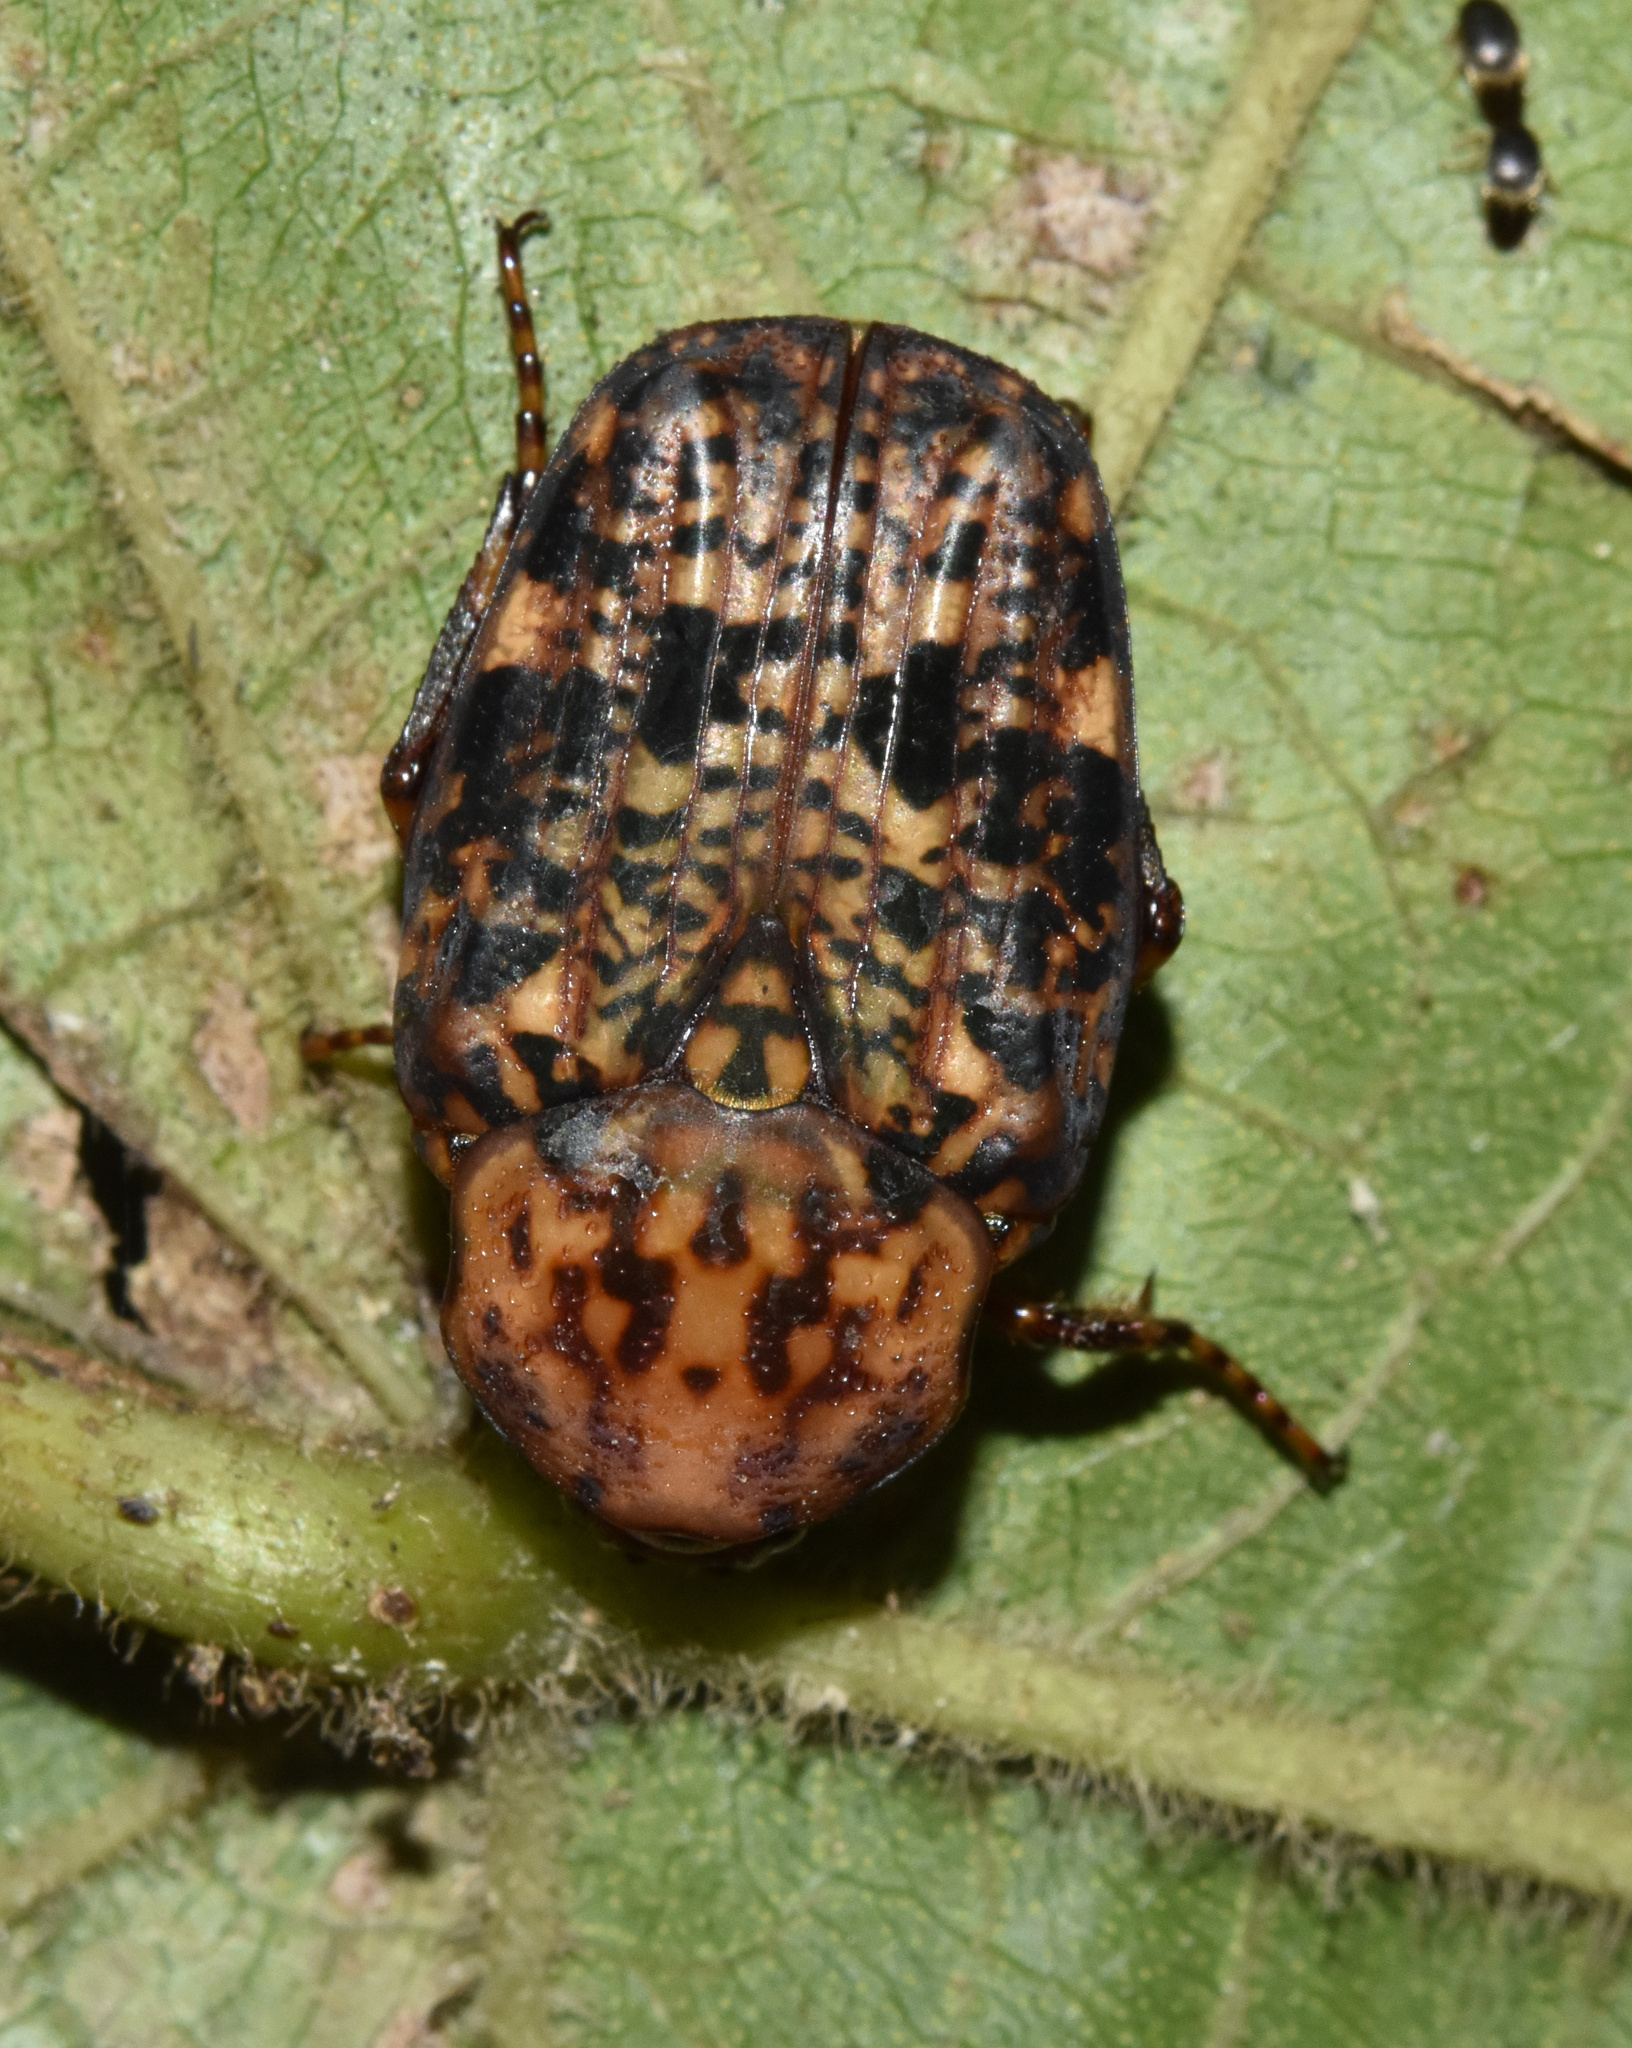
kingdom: Animalia
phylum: Arthropoda
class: Insecta
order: Coleoptera
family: Scarabaeidae
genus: Porphyronota
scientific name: Porphyronota maculatissima
